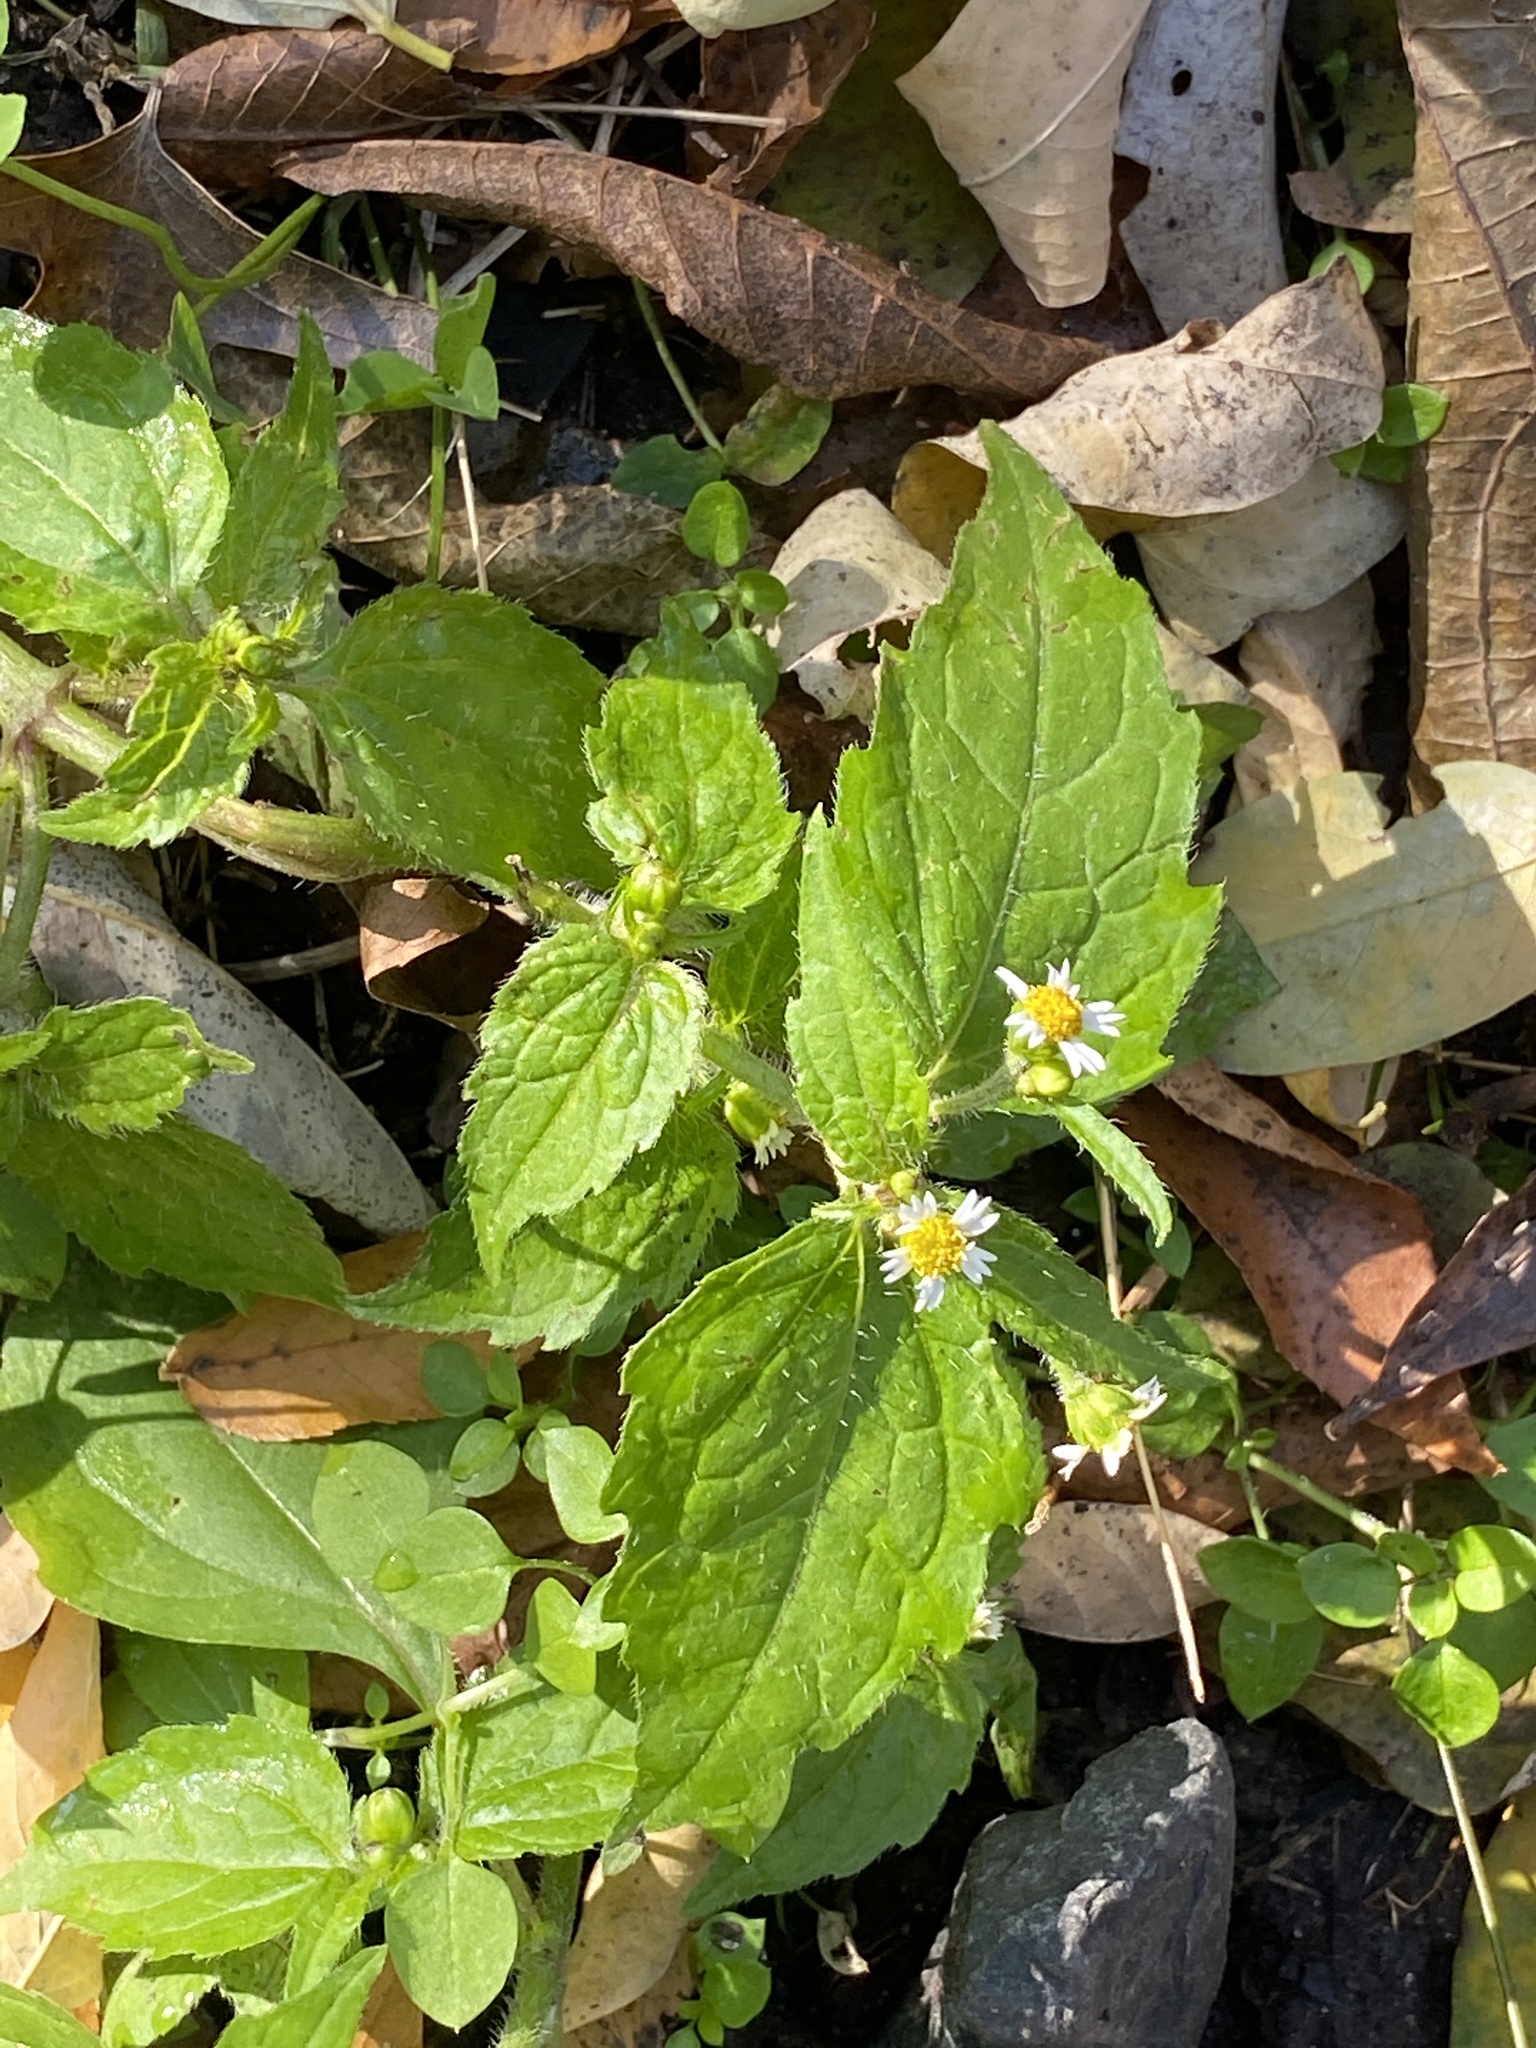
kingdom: Plantae
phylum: Tracheophyta
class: Magnoliopsida
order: Asterales
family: Asteraceae
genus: Galinsoga
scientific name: Galinsoga quadriradiata
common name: Shaggy soldier
